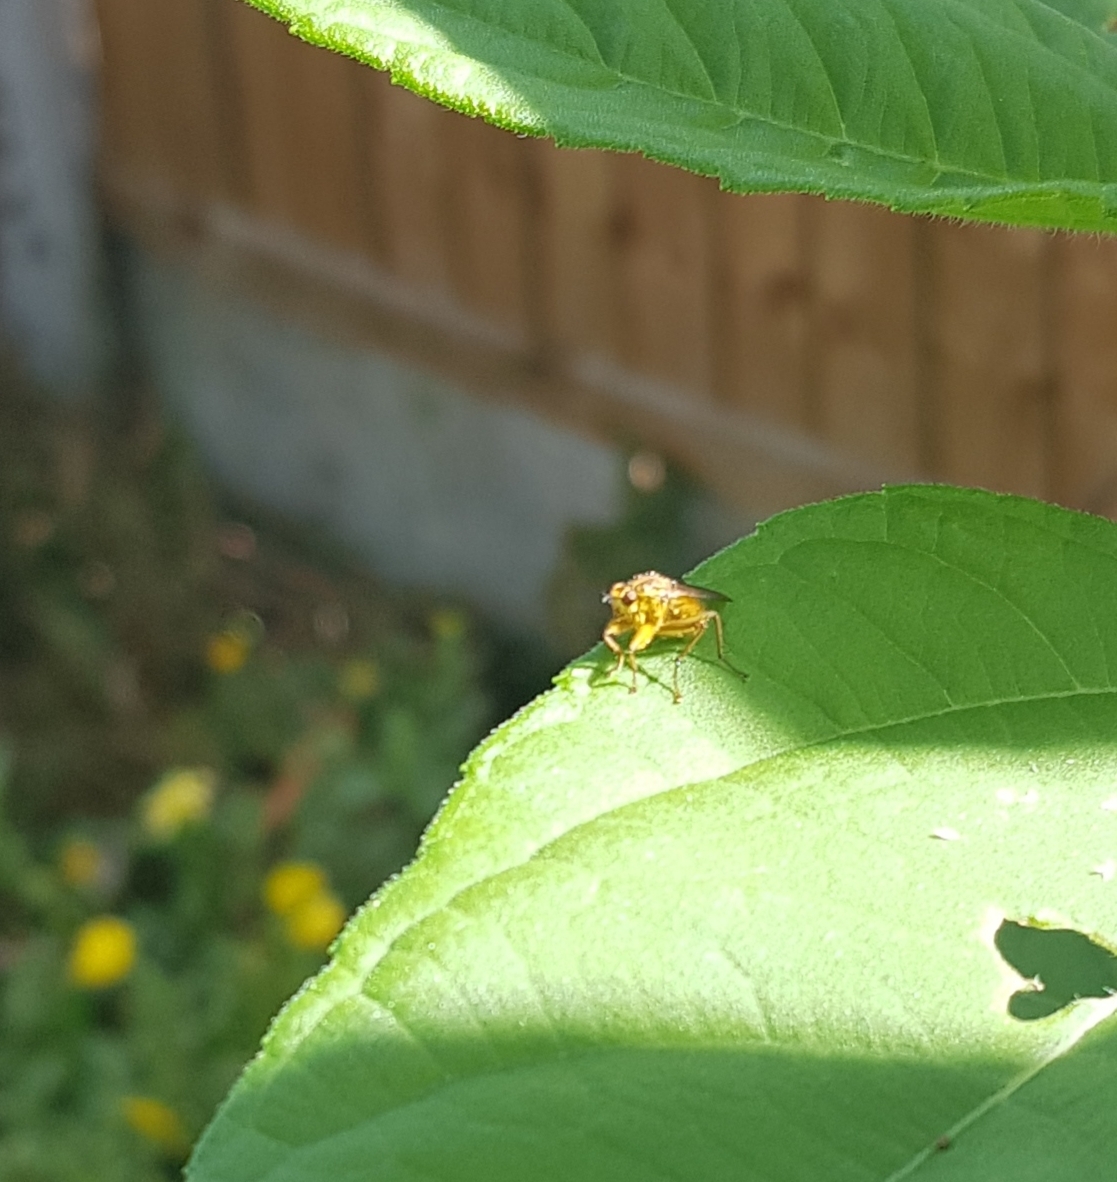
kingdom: Animalia
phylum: Arthropoda
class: Insecta
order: Diptera
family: Scathophagidae
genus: Scathophaga
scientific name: Scathophaga stercoraria
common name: Yellow dung fly
